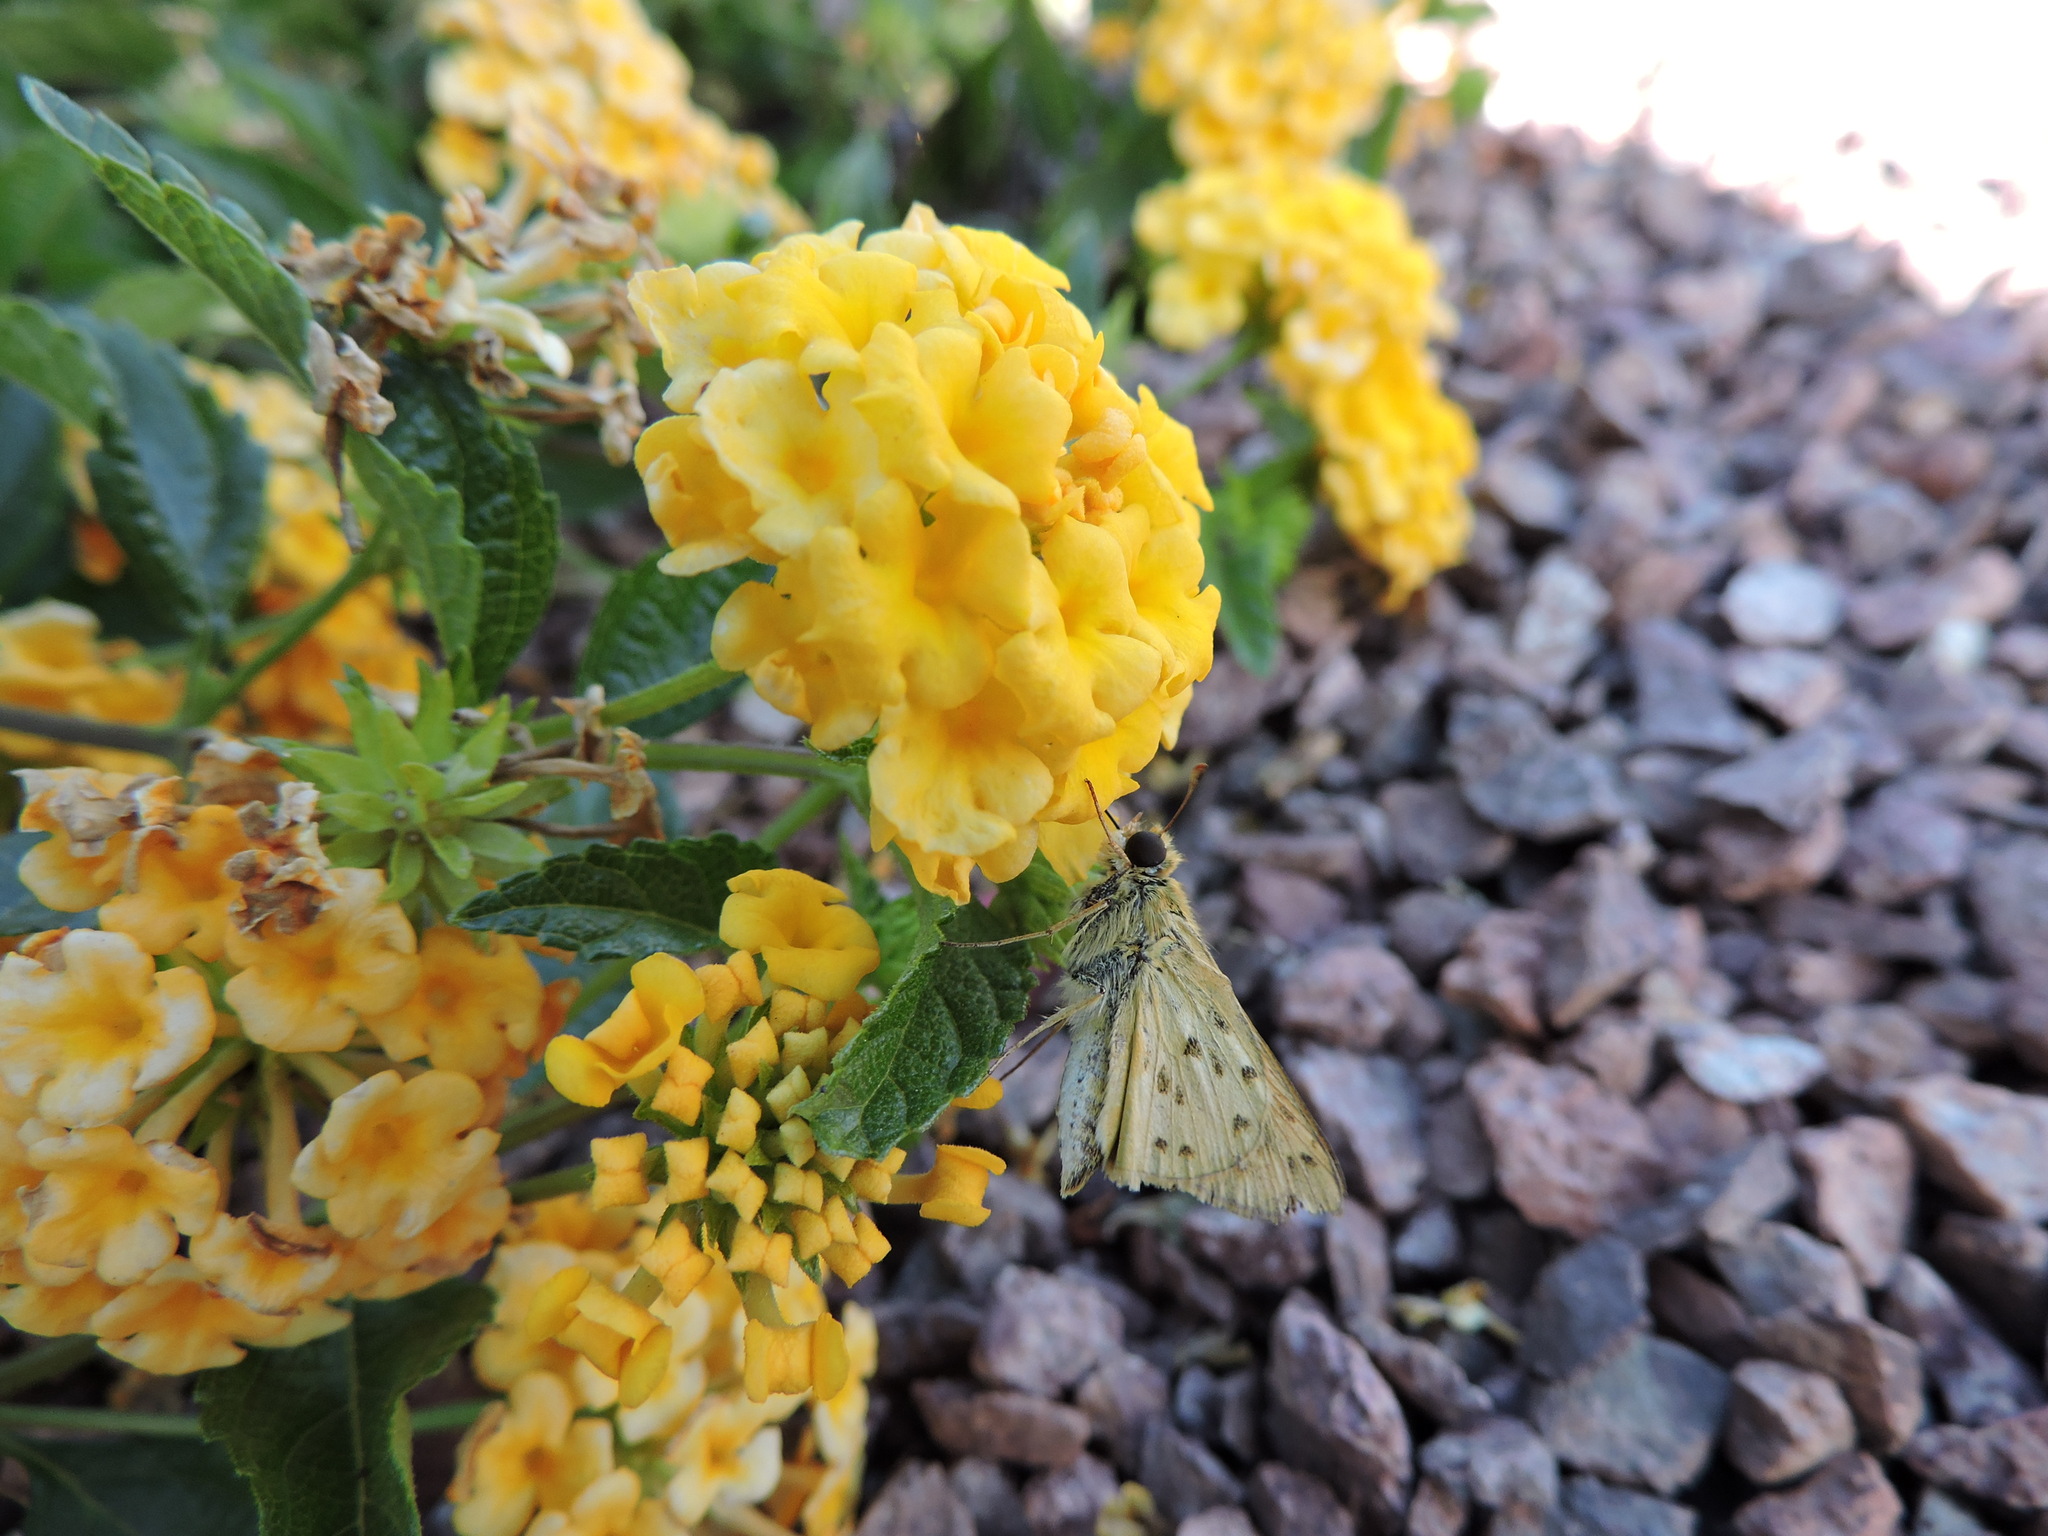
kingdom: Animalia
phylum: Arthropoda
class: Insecta
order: Lepidoptera
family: Hesperiidae
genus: Hylephila
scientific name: Hylephila phyleus
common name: Fiery skipper
